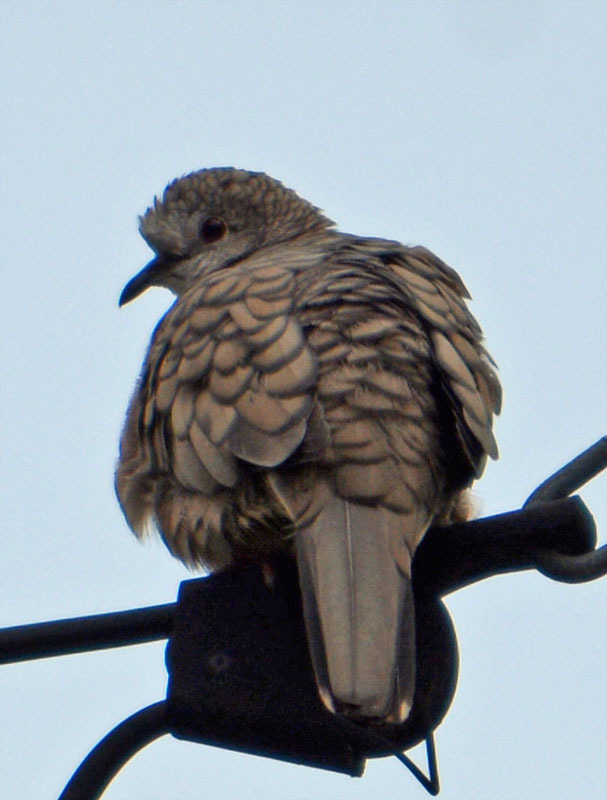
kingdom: Animalia
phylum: Chordata
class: Aves
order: Columbiformes
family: Columbidae
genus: Columbina
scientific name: Columbina inca
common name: Inca dove
